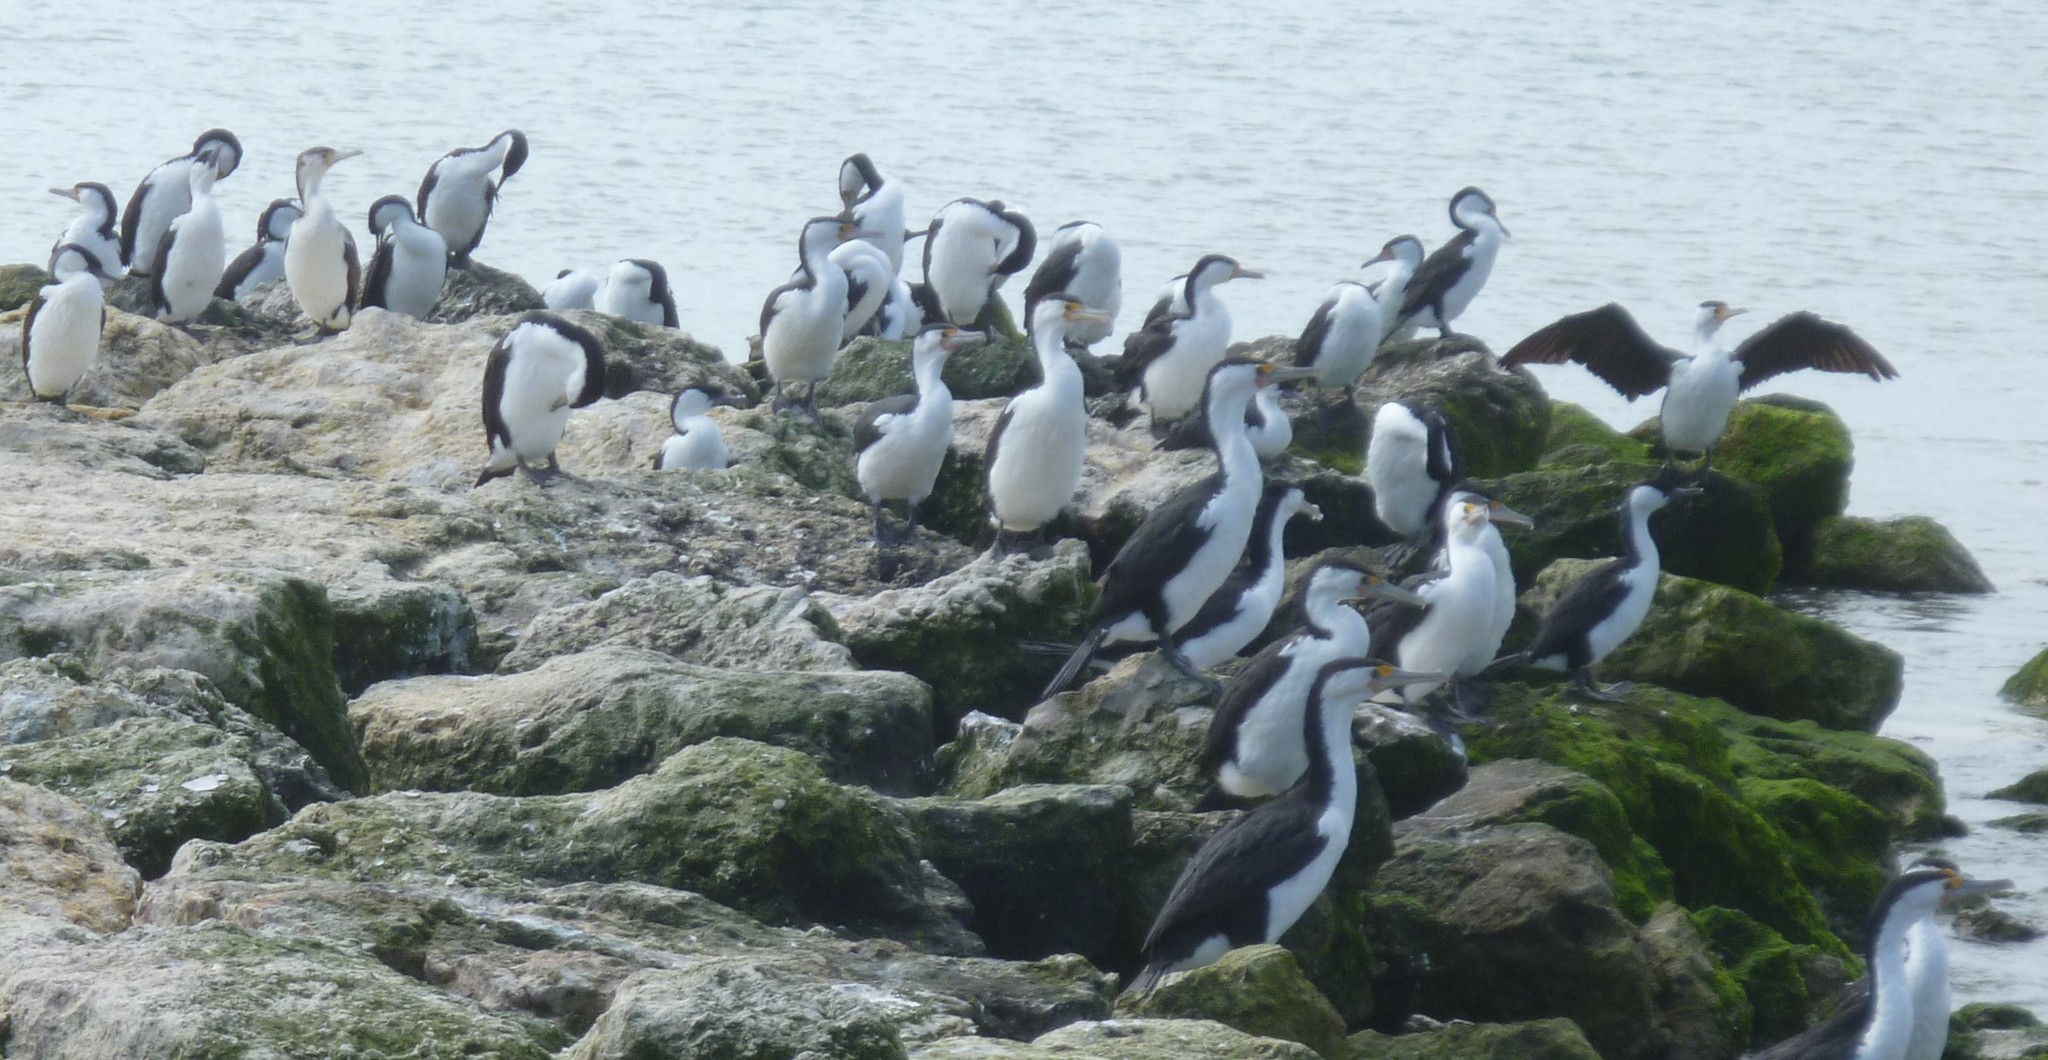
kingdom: Animalia
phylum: Chordata
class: Aves
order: Suliformes
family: Phalacrocoracidae
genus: Phalacrocorax
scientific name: Phalacrocorax varius
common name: Pied cormorant
